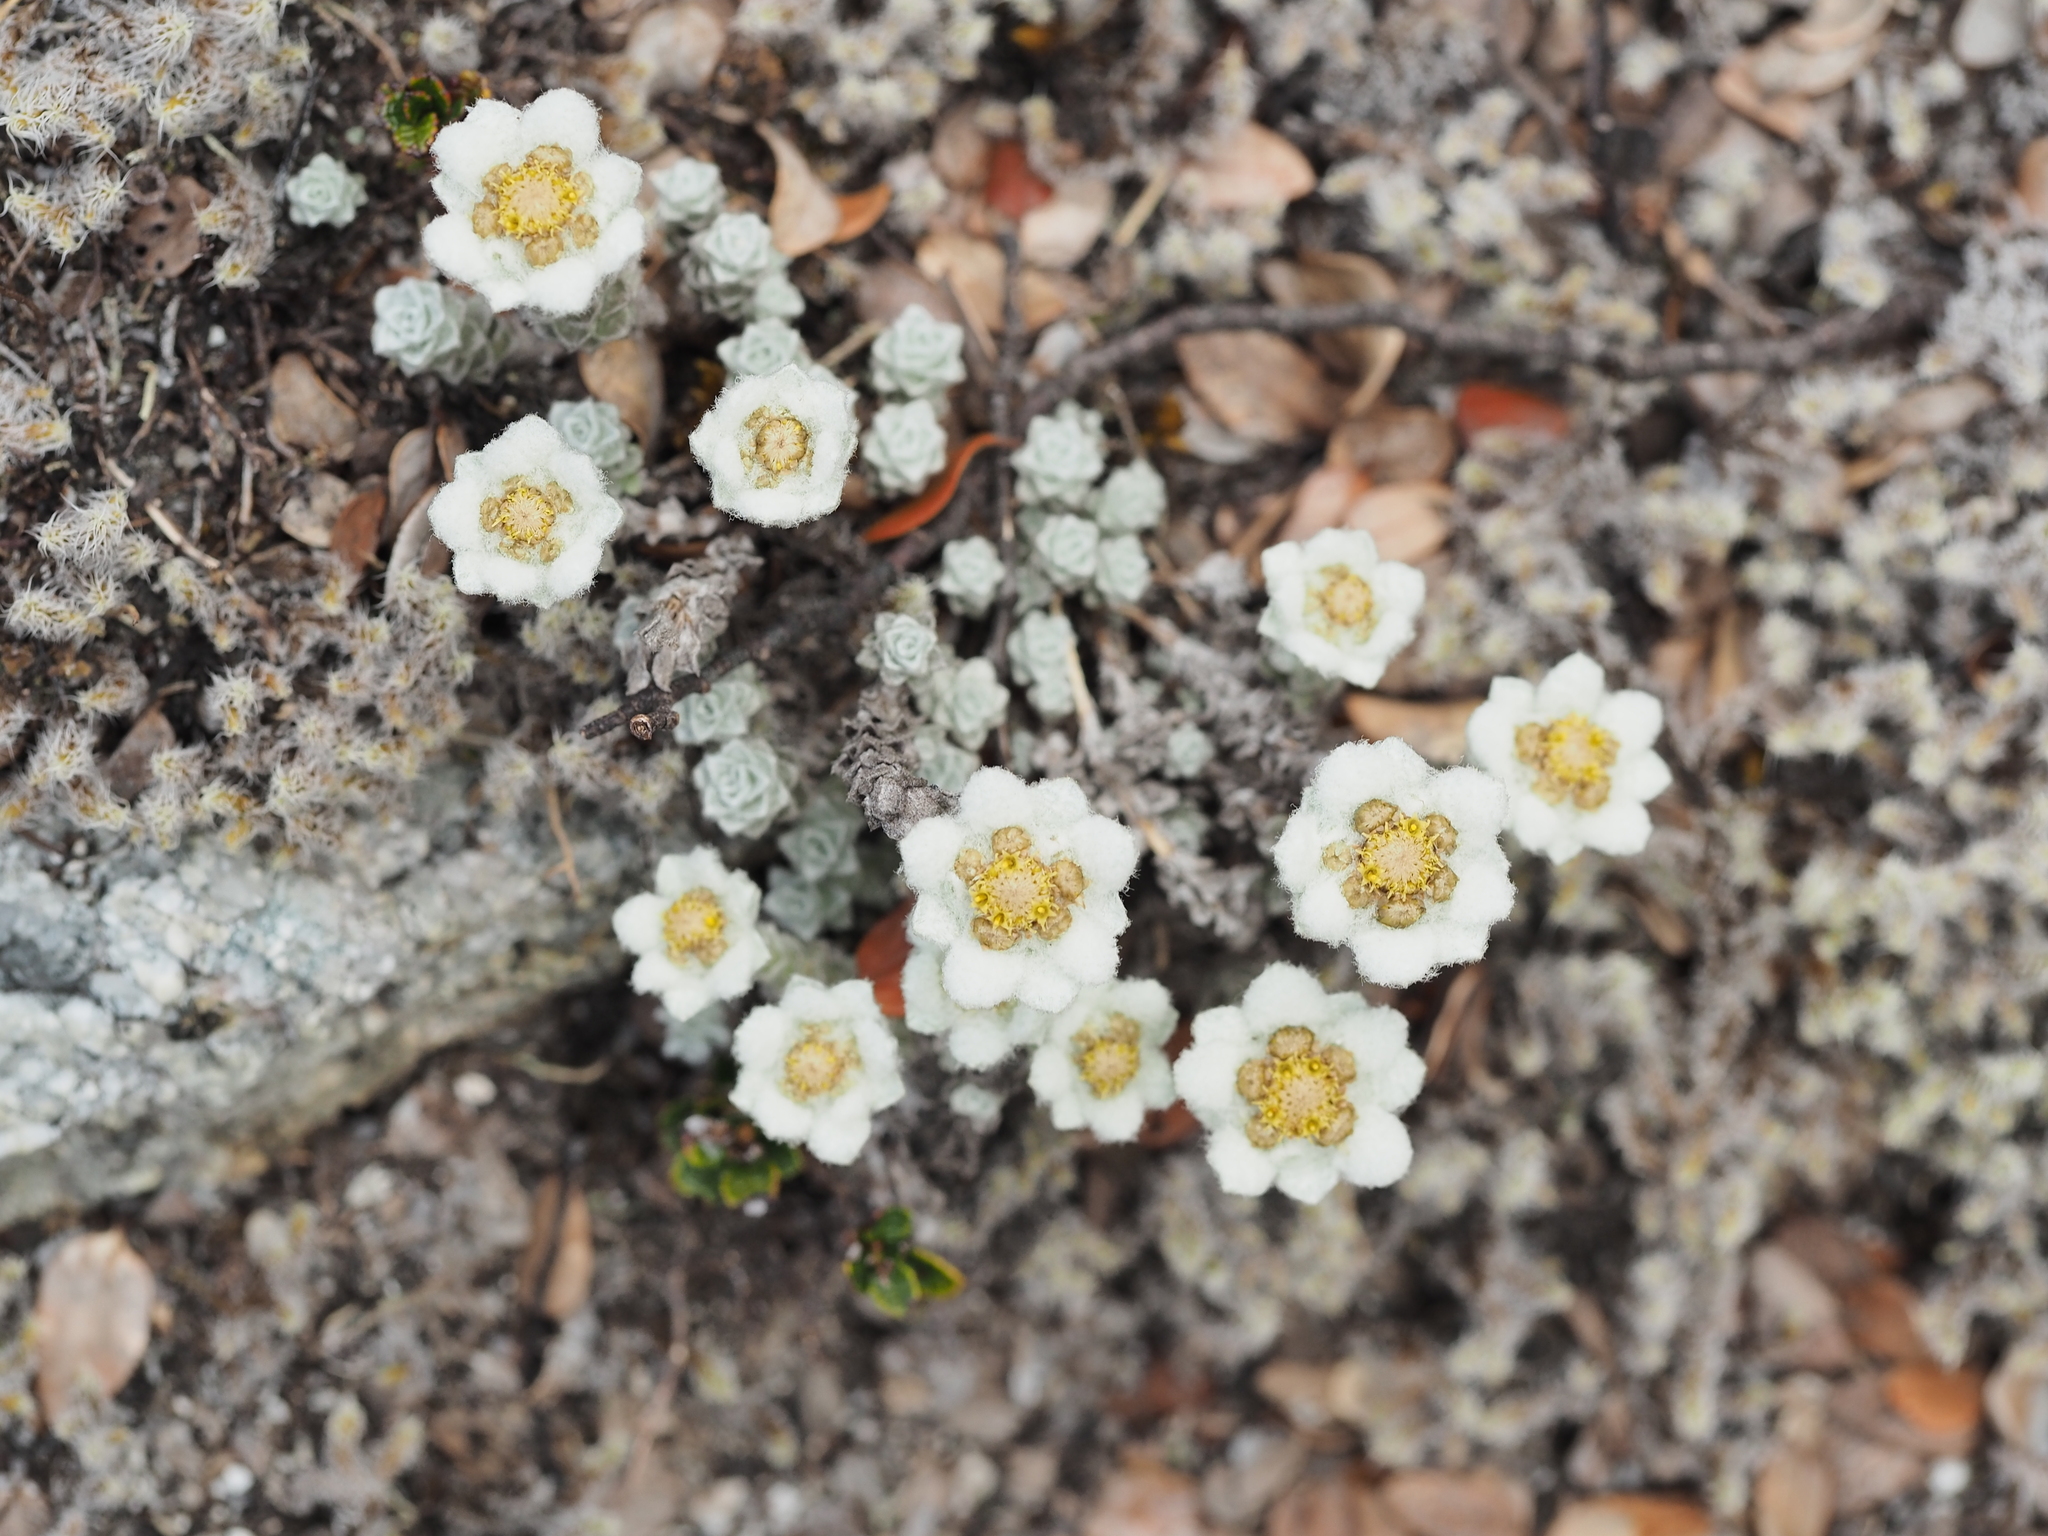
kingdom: Plantae
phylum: Tracheophyta
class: Magnoliopsida
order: Asterales
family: Asteraceae
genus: Leucogenes
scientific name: Leucogenes grandiceps
